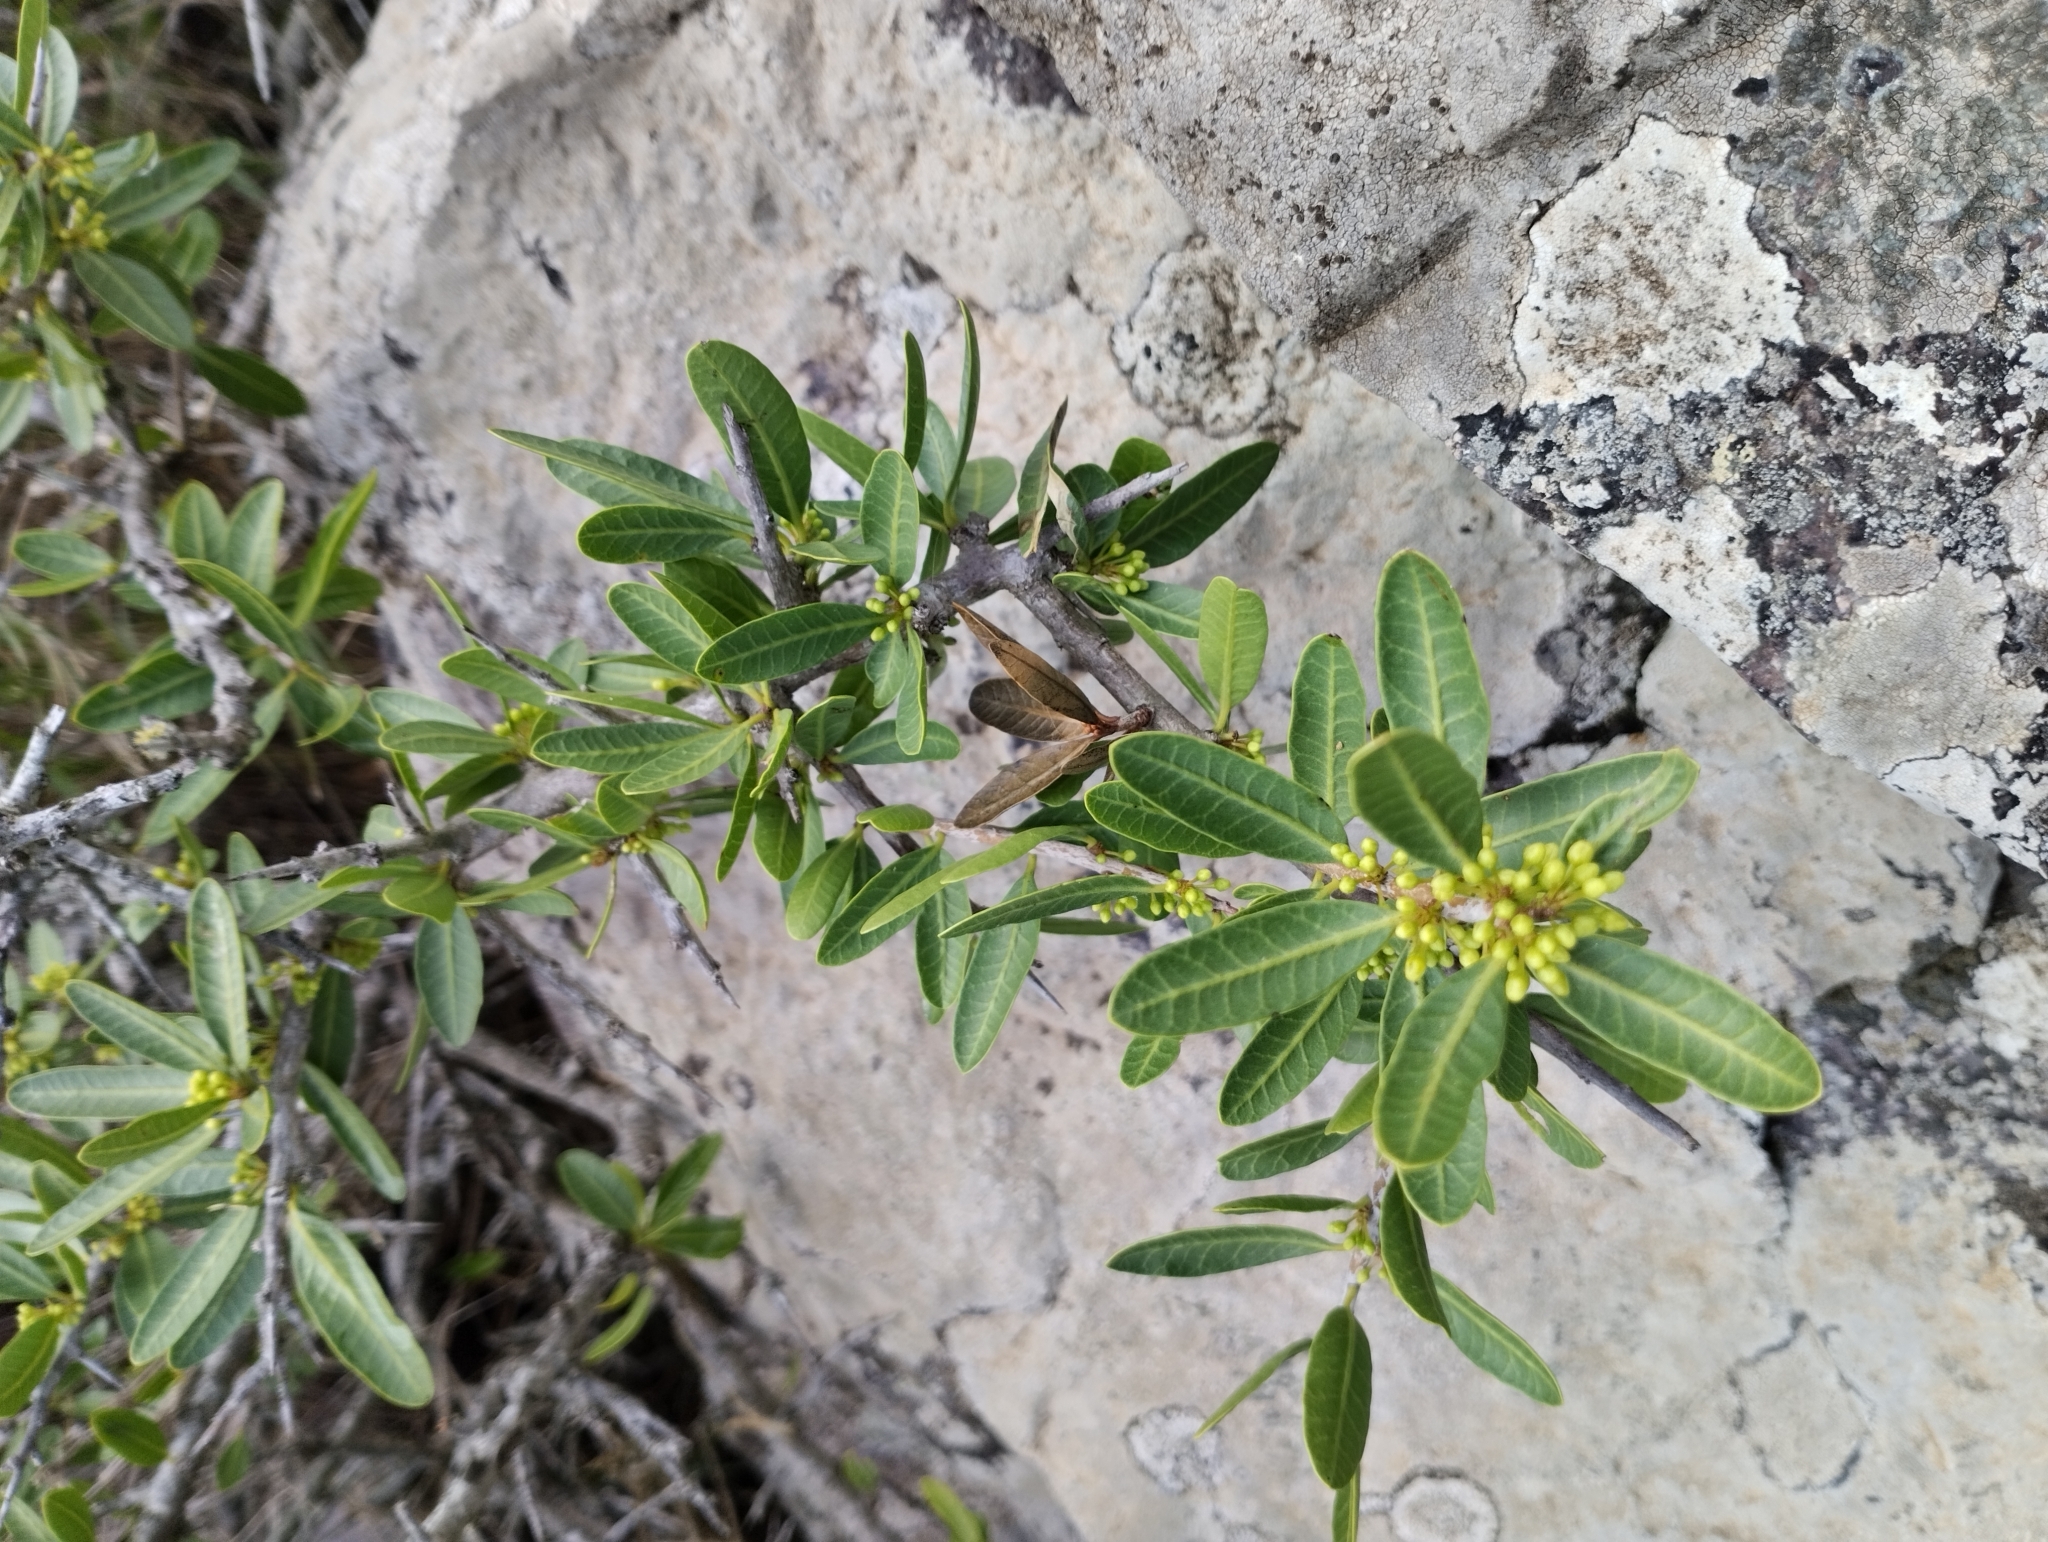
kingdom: Plantae
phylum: Tracheophyta
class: Magnoliopsida
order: Sapindales
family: Anacardiaceae
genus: Schinus
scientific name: Schinus longifolia
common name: Longleaf peppertree
